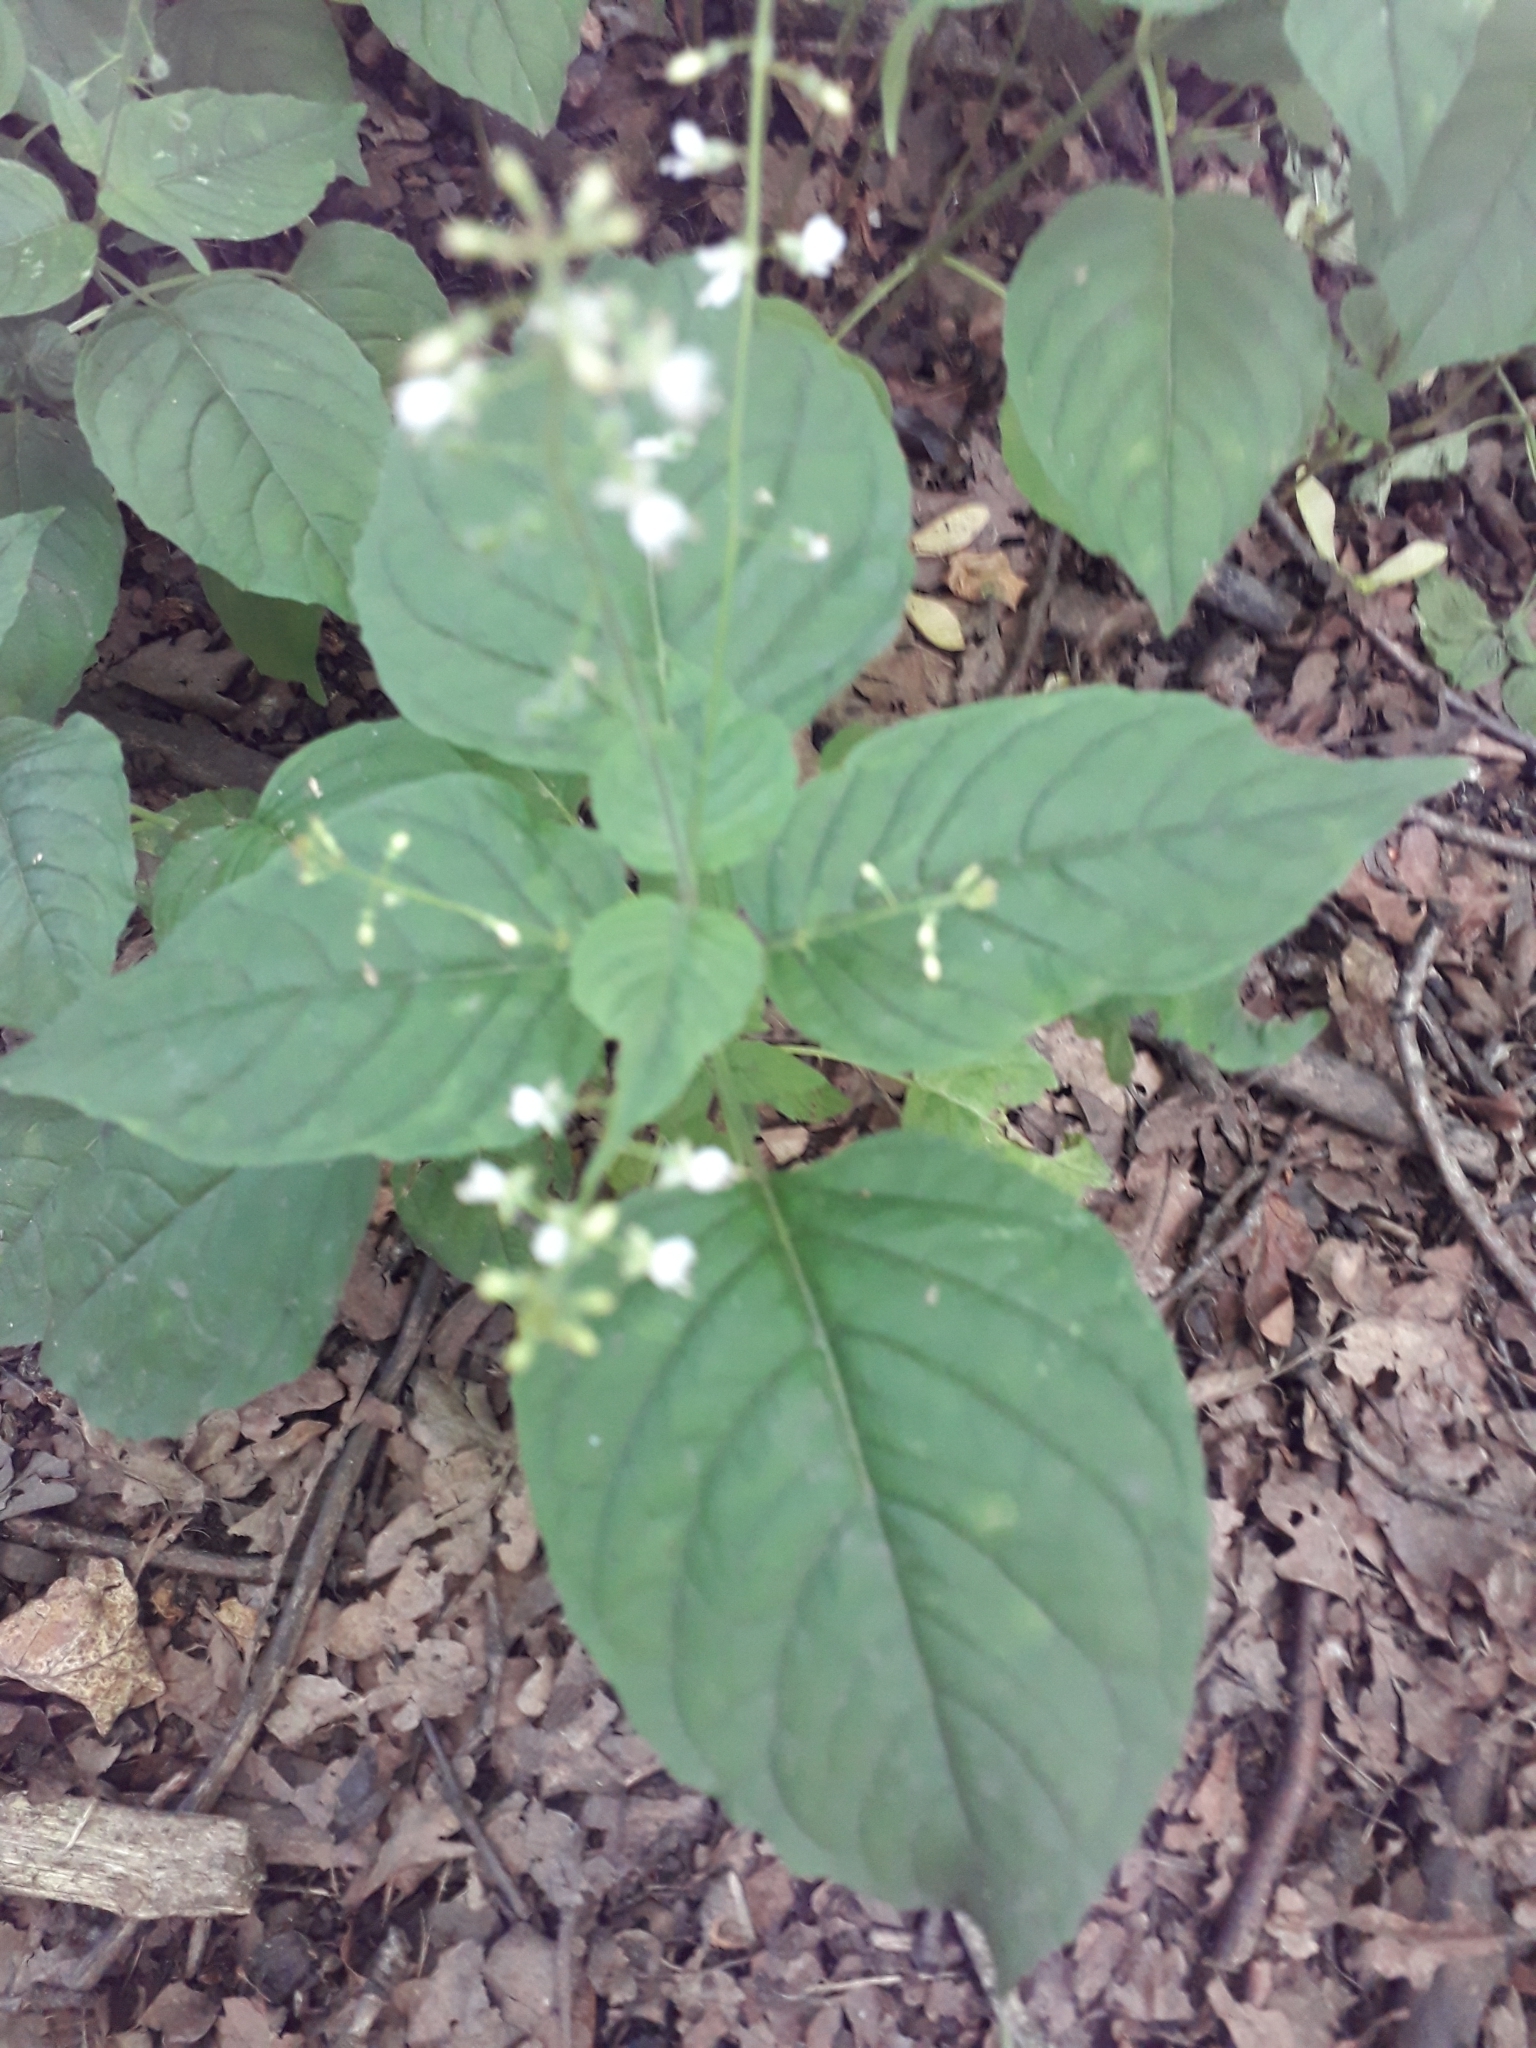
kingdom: Plantae
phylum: Tracheophyta
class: Magnoliopsida
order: Myrtales
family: Onagraceae
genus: Circaea
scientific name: Circaea lutetiana
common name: Enchanter's-nightshade
